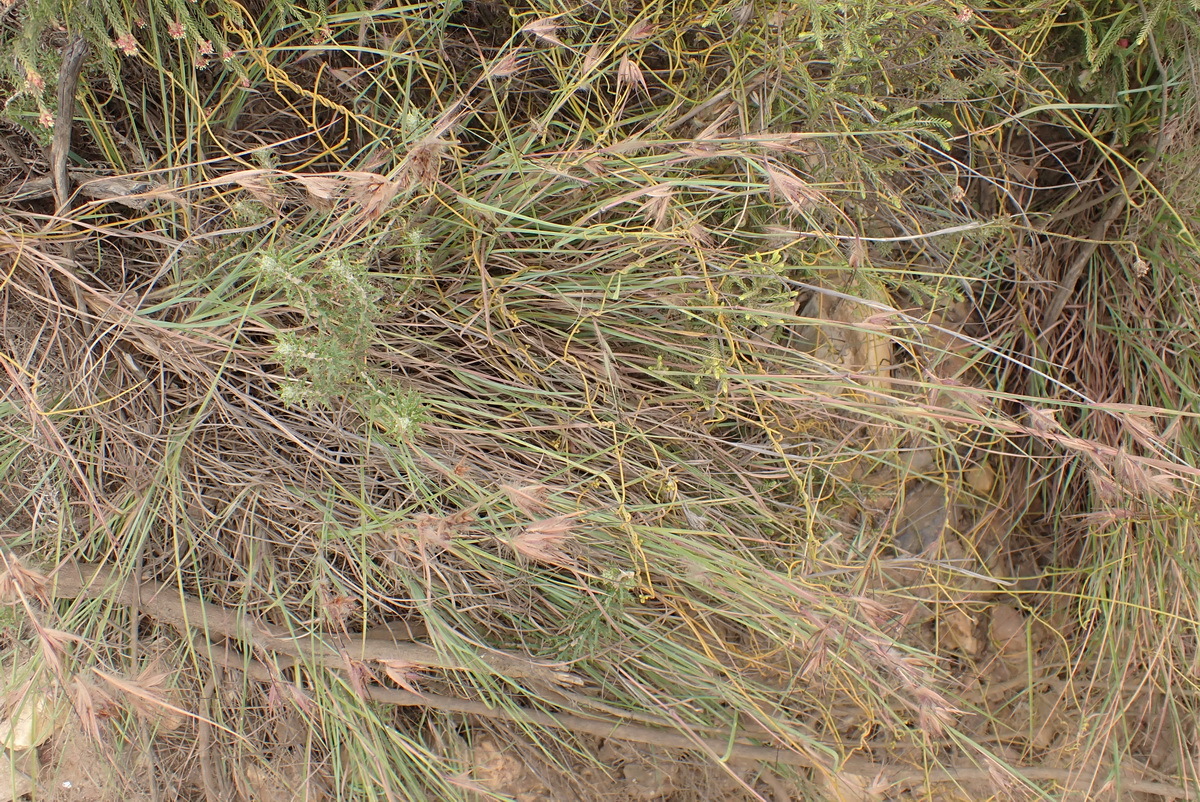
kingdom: Plantae
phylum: Tracheophyta
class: Liliopsida
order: Poales
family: Poaceae
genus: Themeda
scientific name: Themeda triandra
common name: Kangaroo grass
